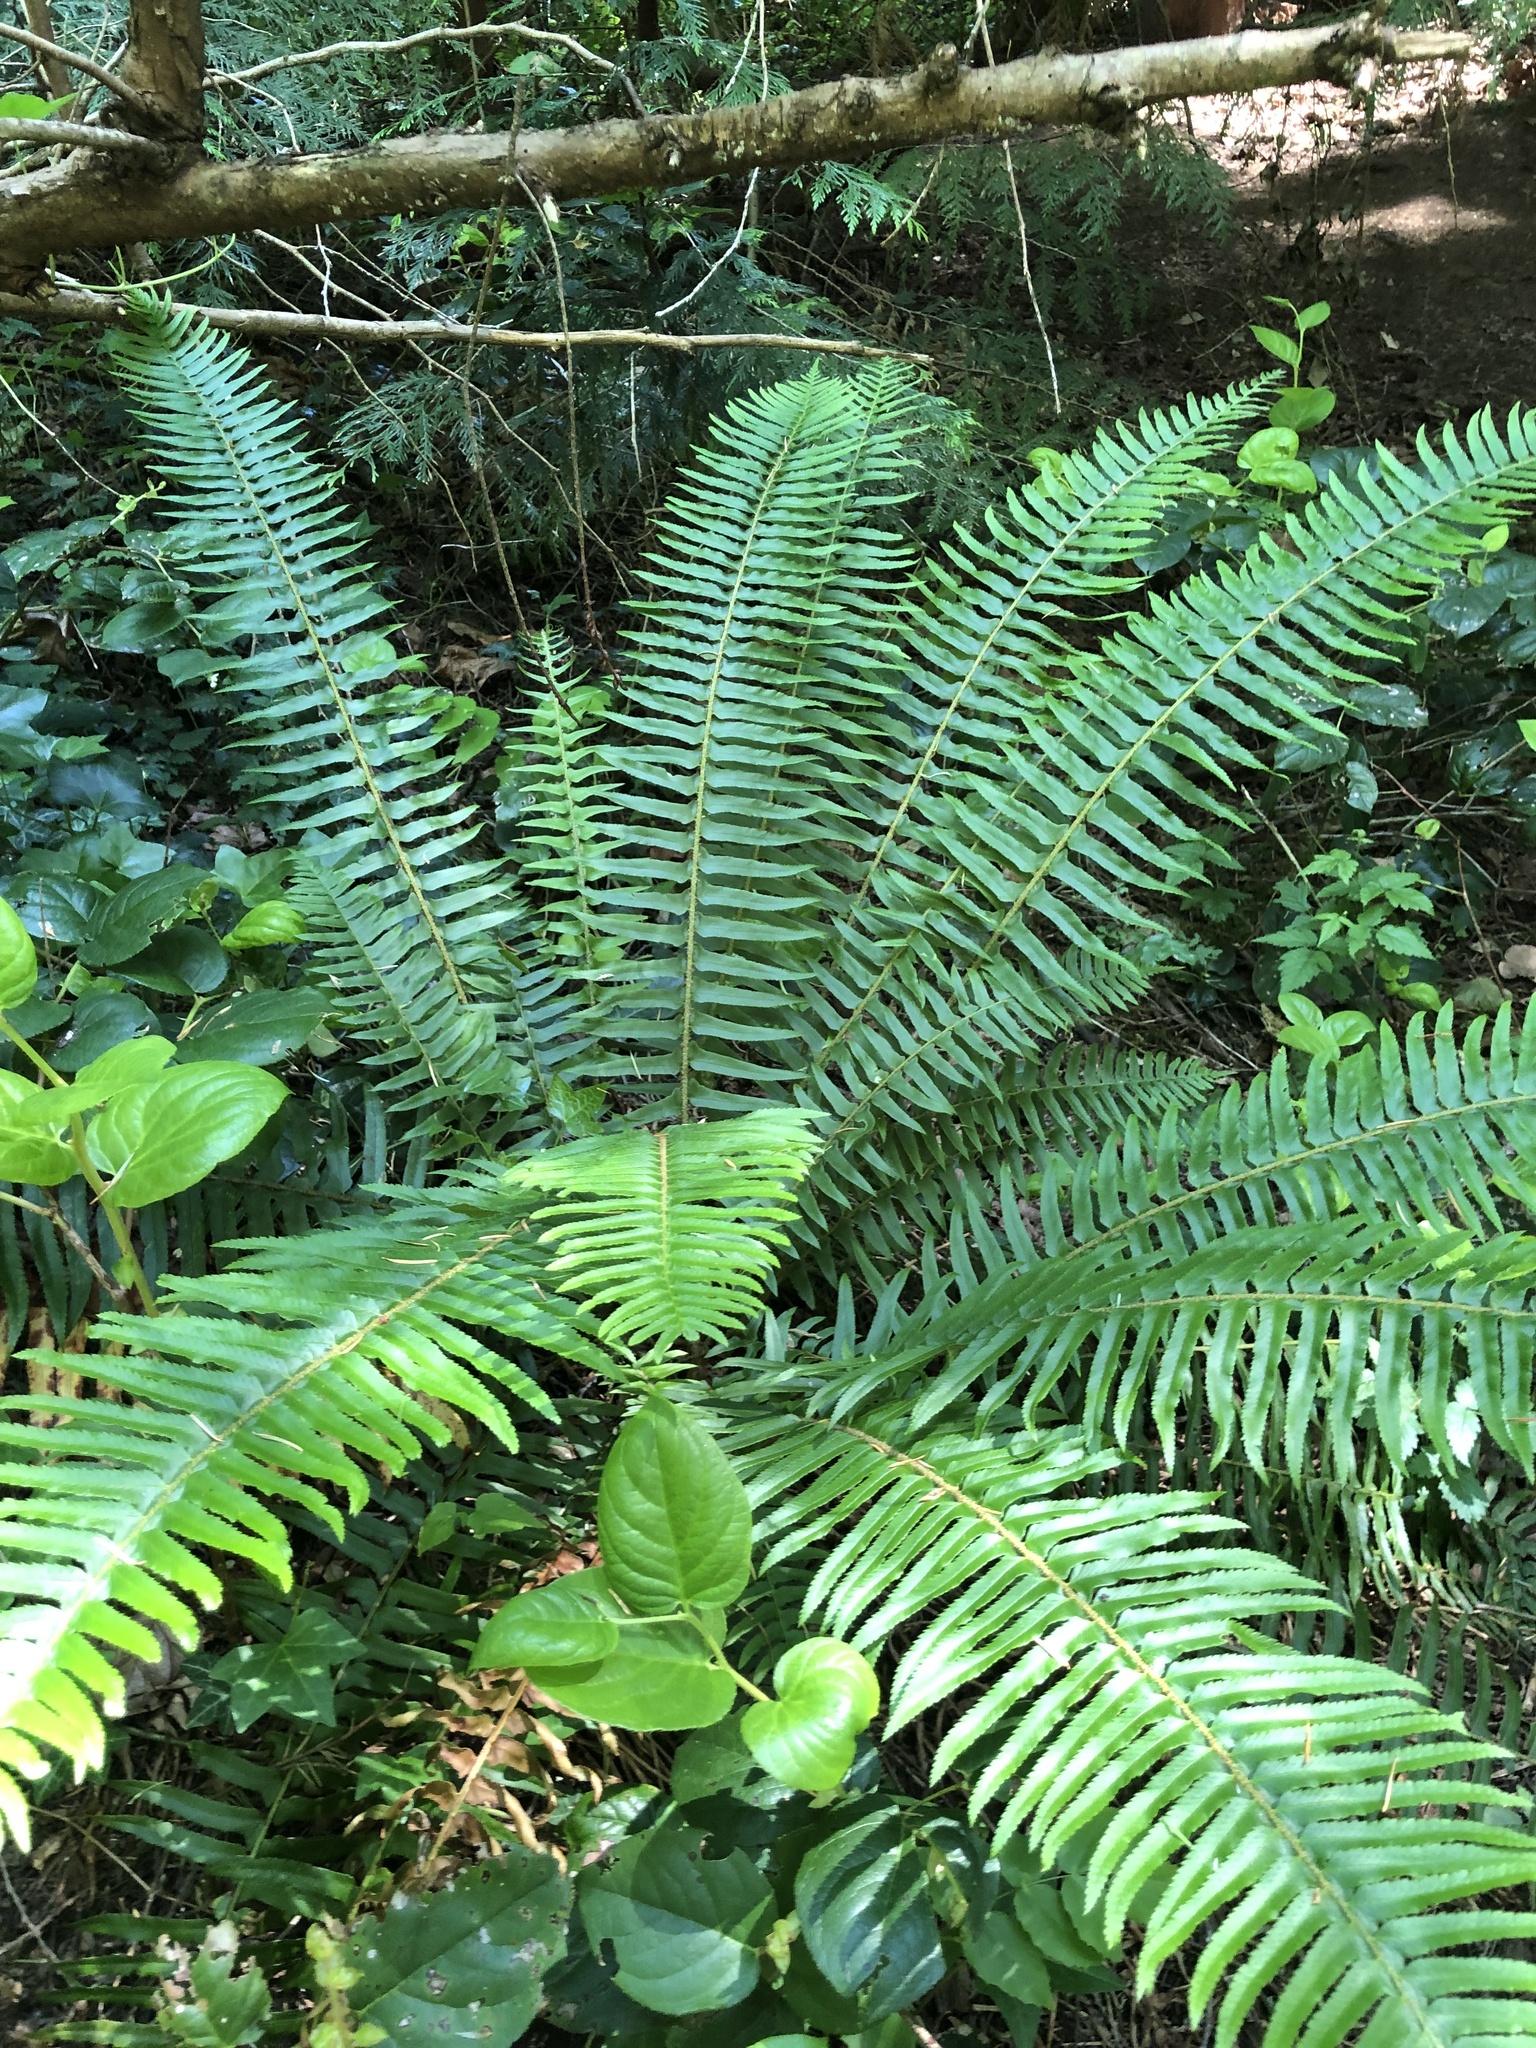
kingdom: Plantae
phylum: Tracheophyta
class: Polypodiopsida
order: Polypodiales
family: Dryopteridaceae
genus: Polystichum
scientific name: Polystichum munitum
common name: Western sword-fern
